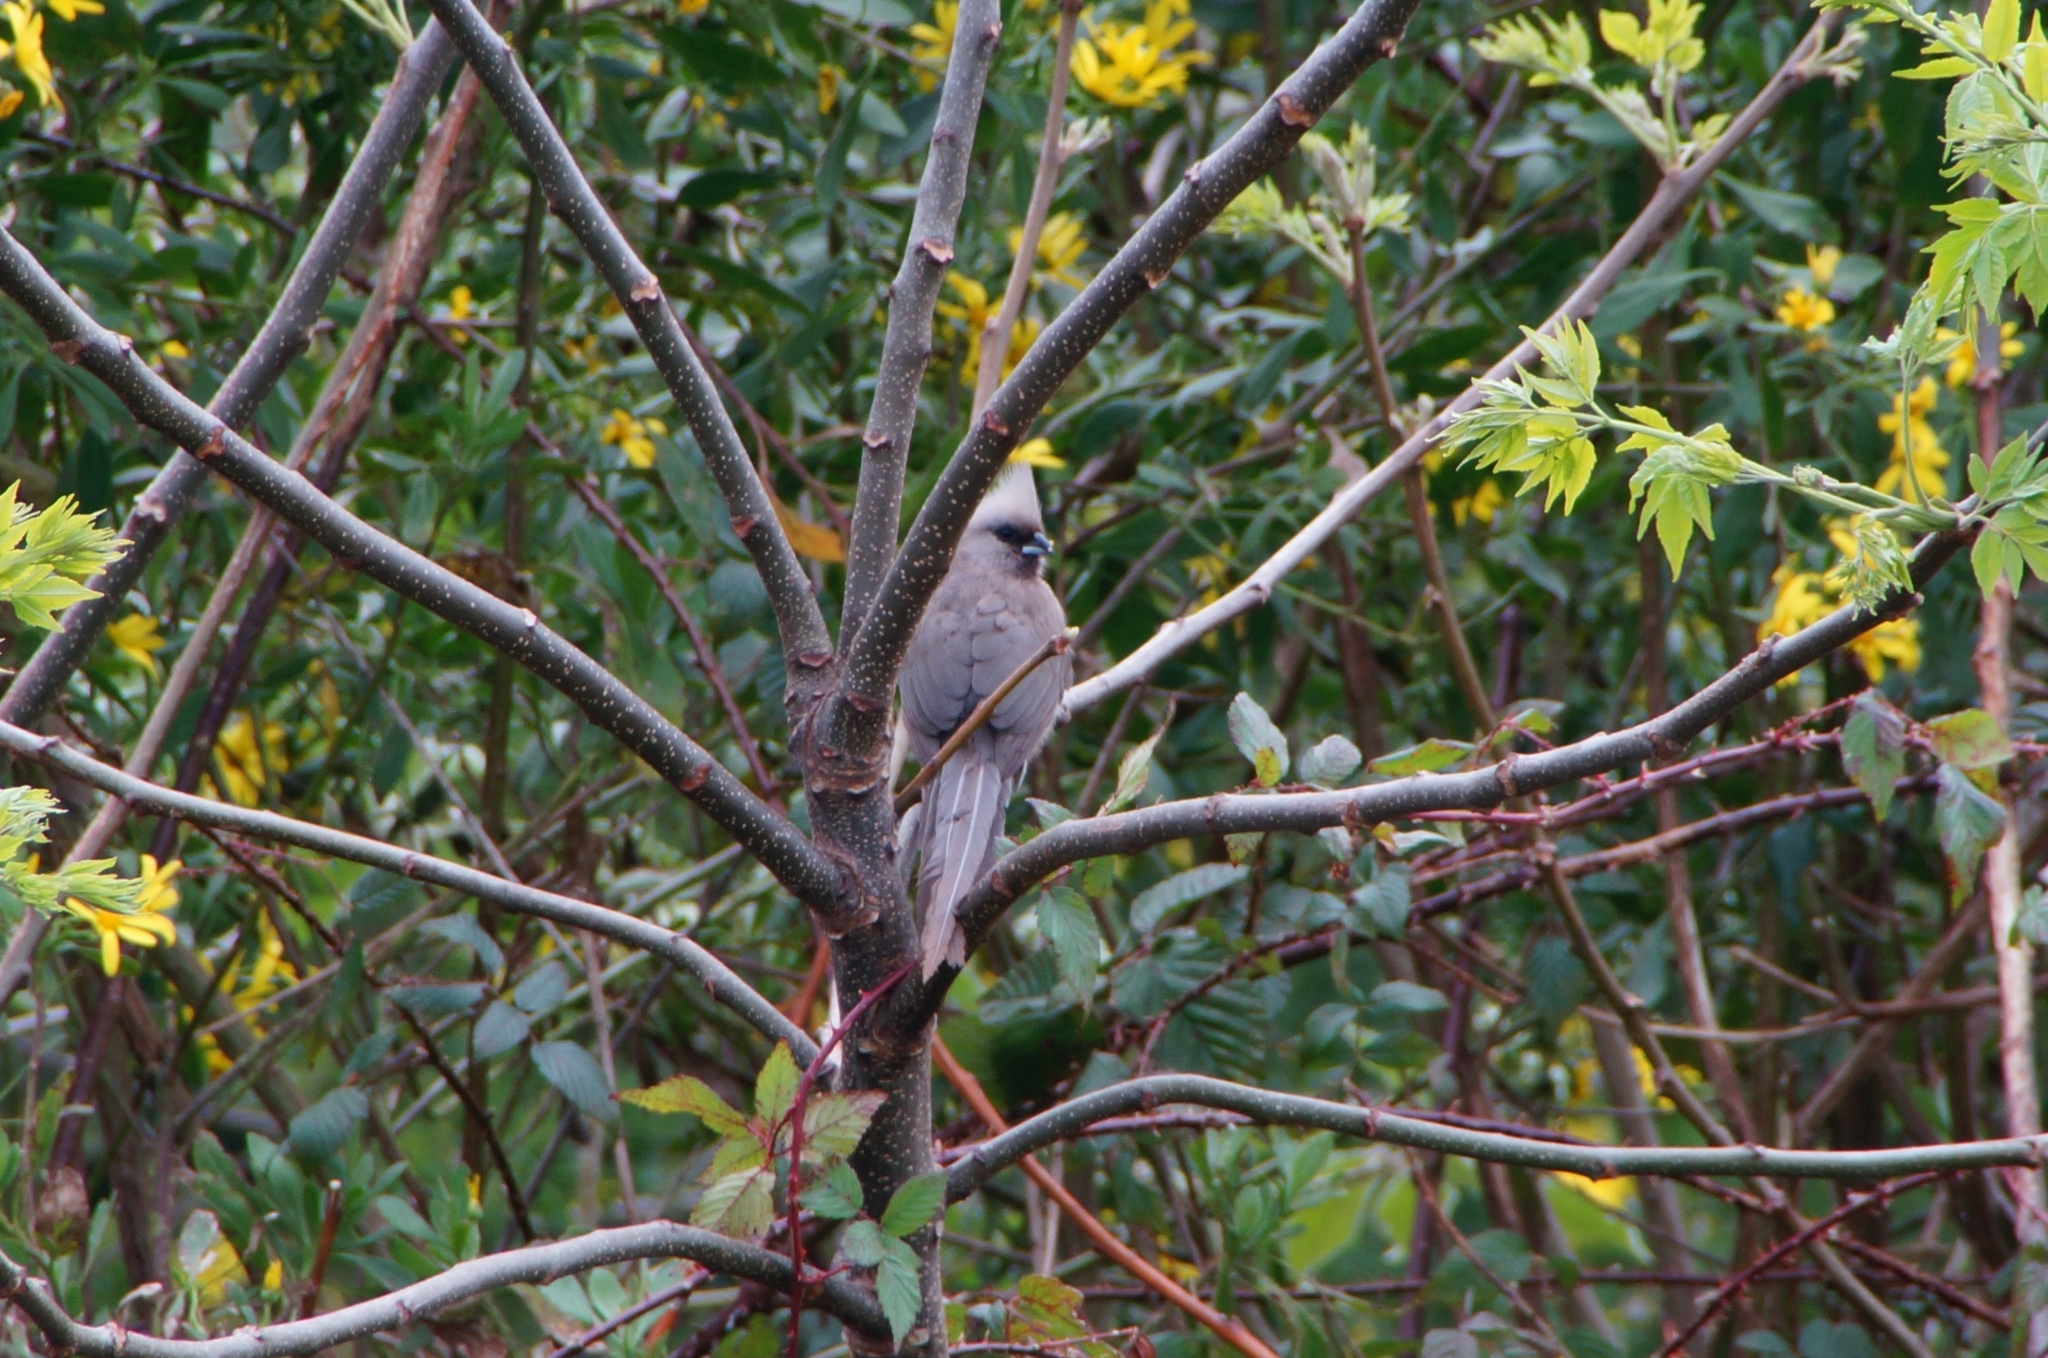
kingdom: Animalia
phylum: Chordata
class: Aves
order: Coliiformes
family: Coliidae
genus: Colius
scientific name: Colius striatus
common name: Speckled mousebird
